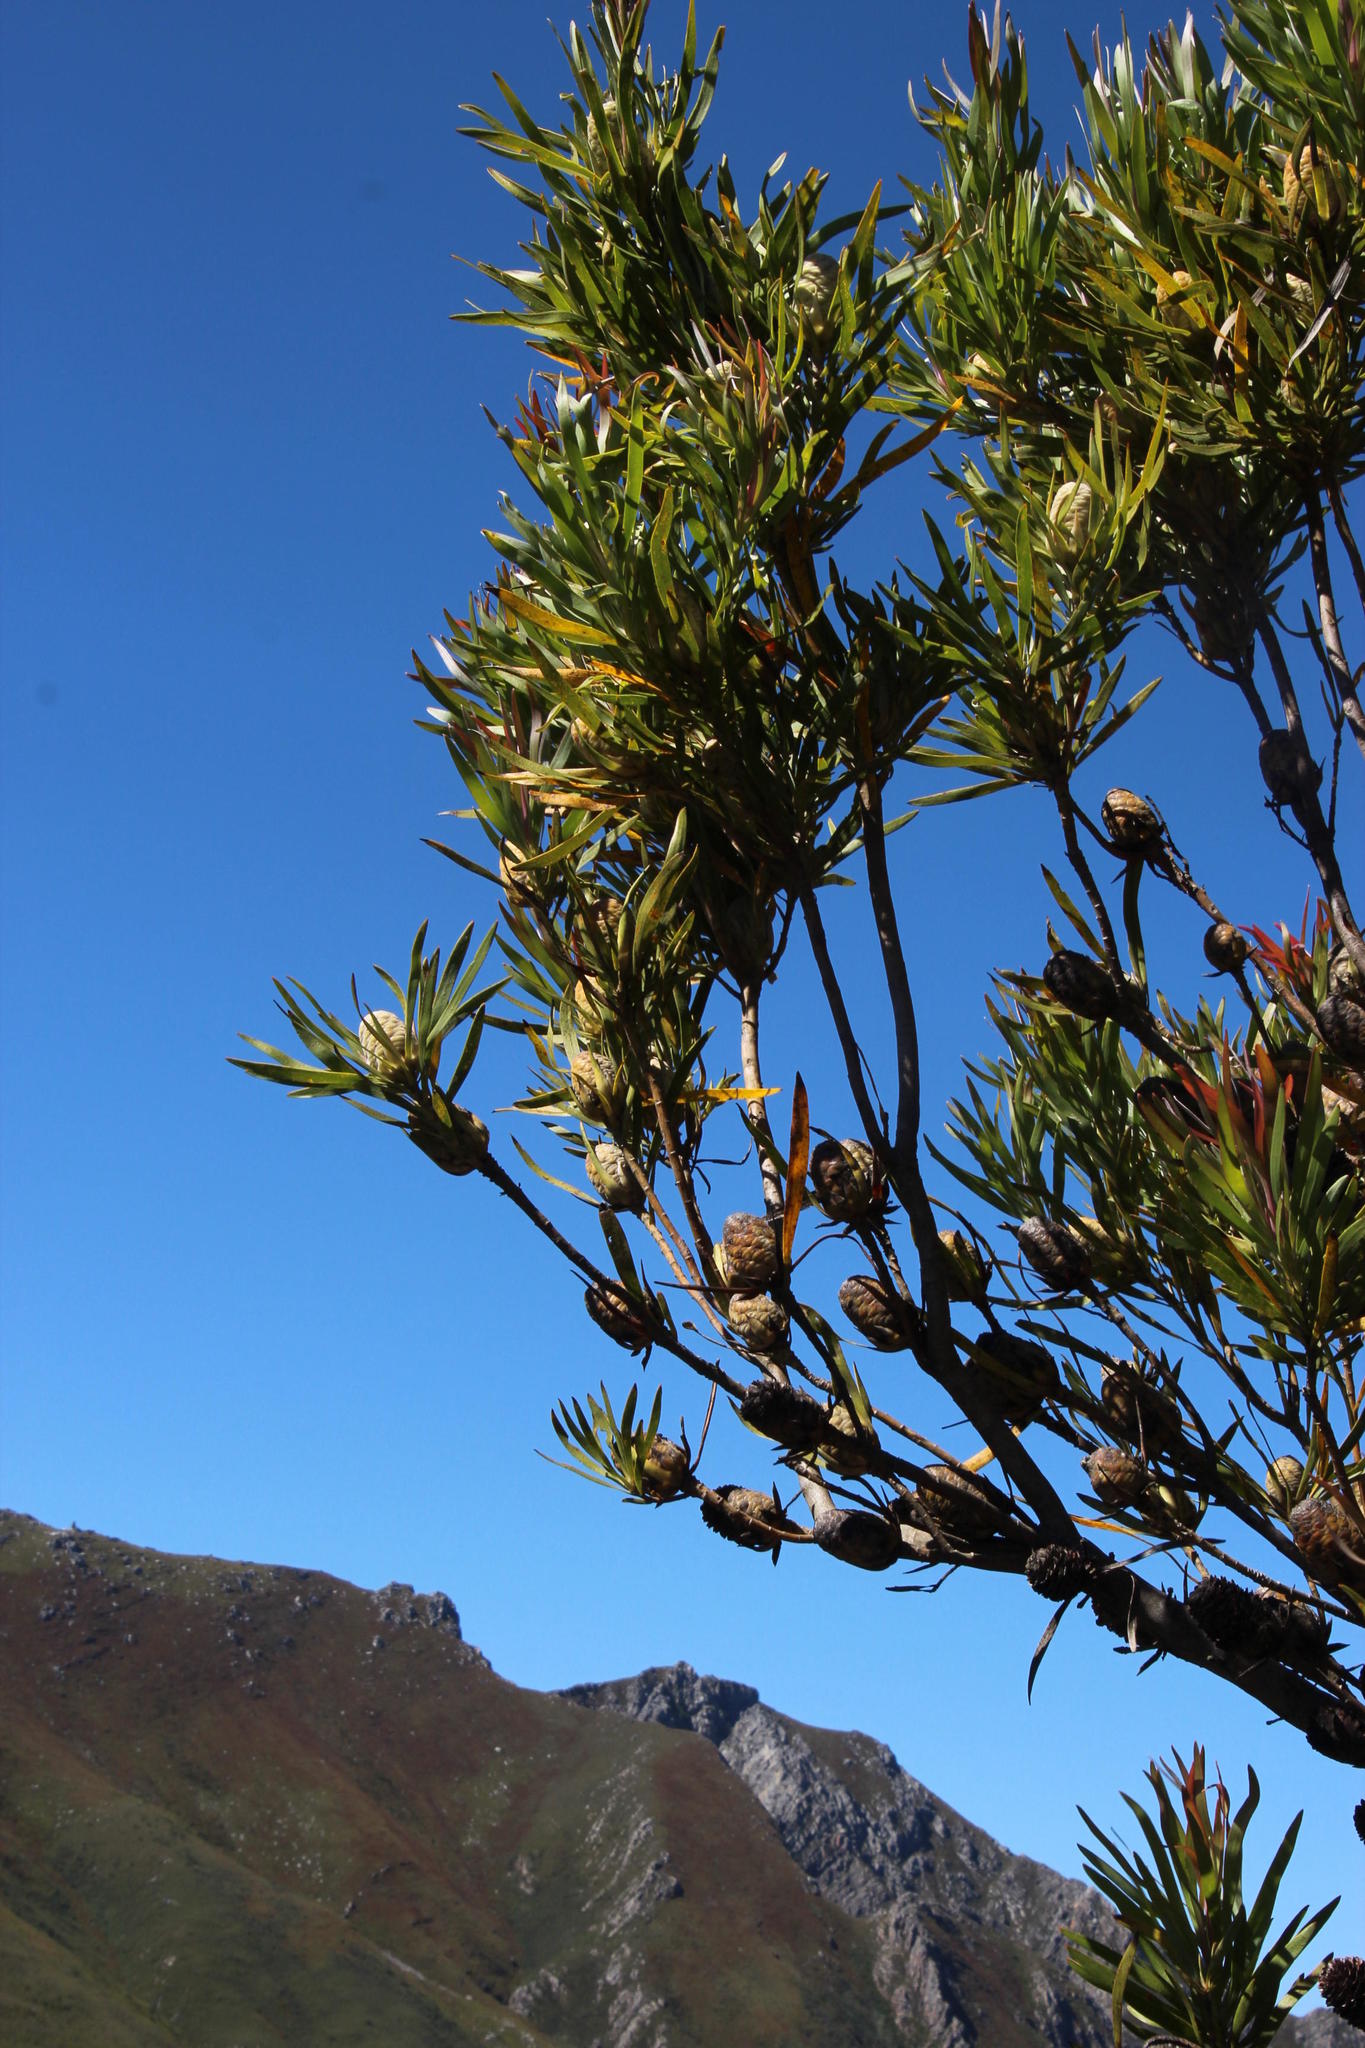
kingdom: Plantae
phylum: Tracheophyta
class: Magnoliopsida
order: Proteales
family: Proteaceae
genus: Leucadendron
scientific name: Leucadendron eucalyptifolium
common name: Gum-leaved conebush
